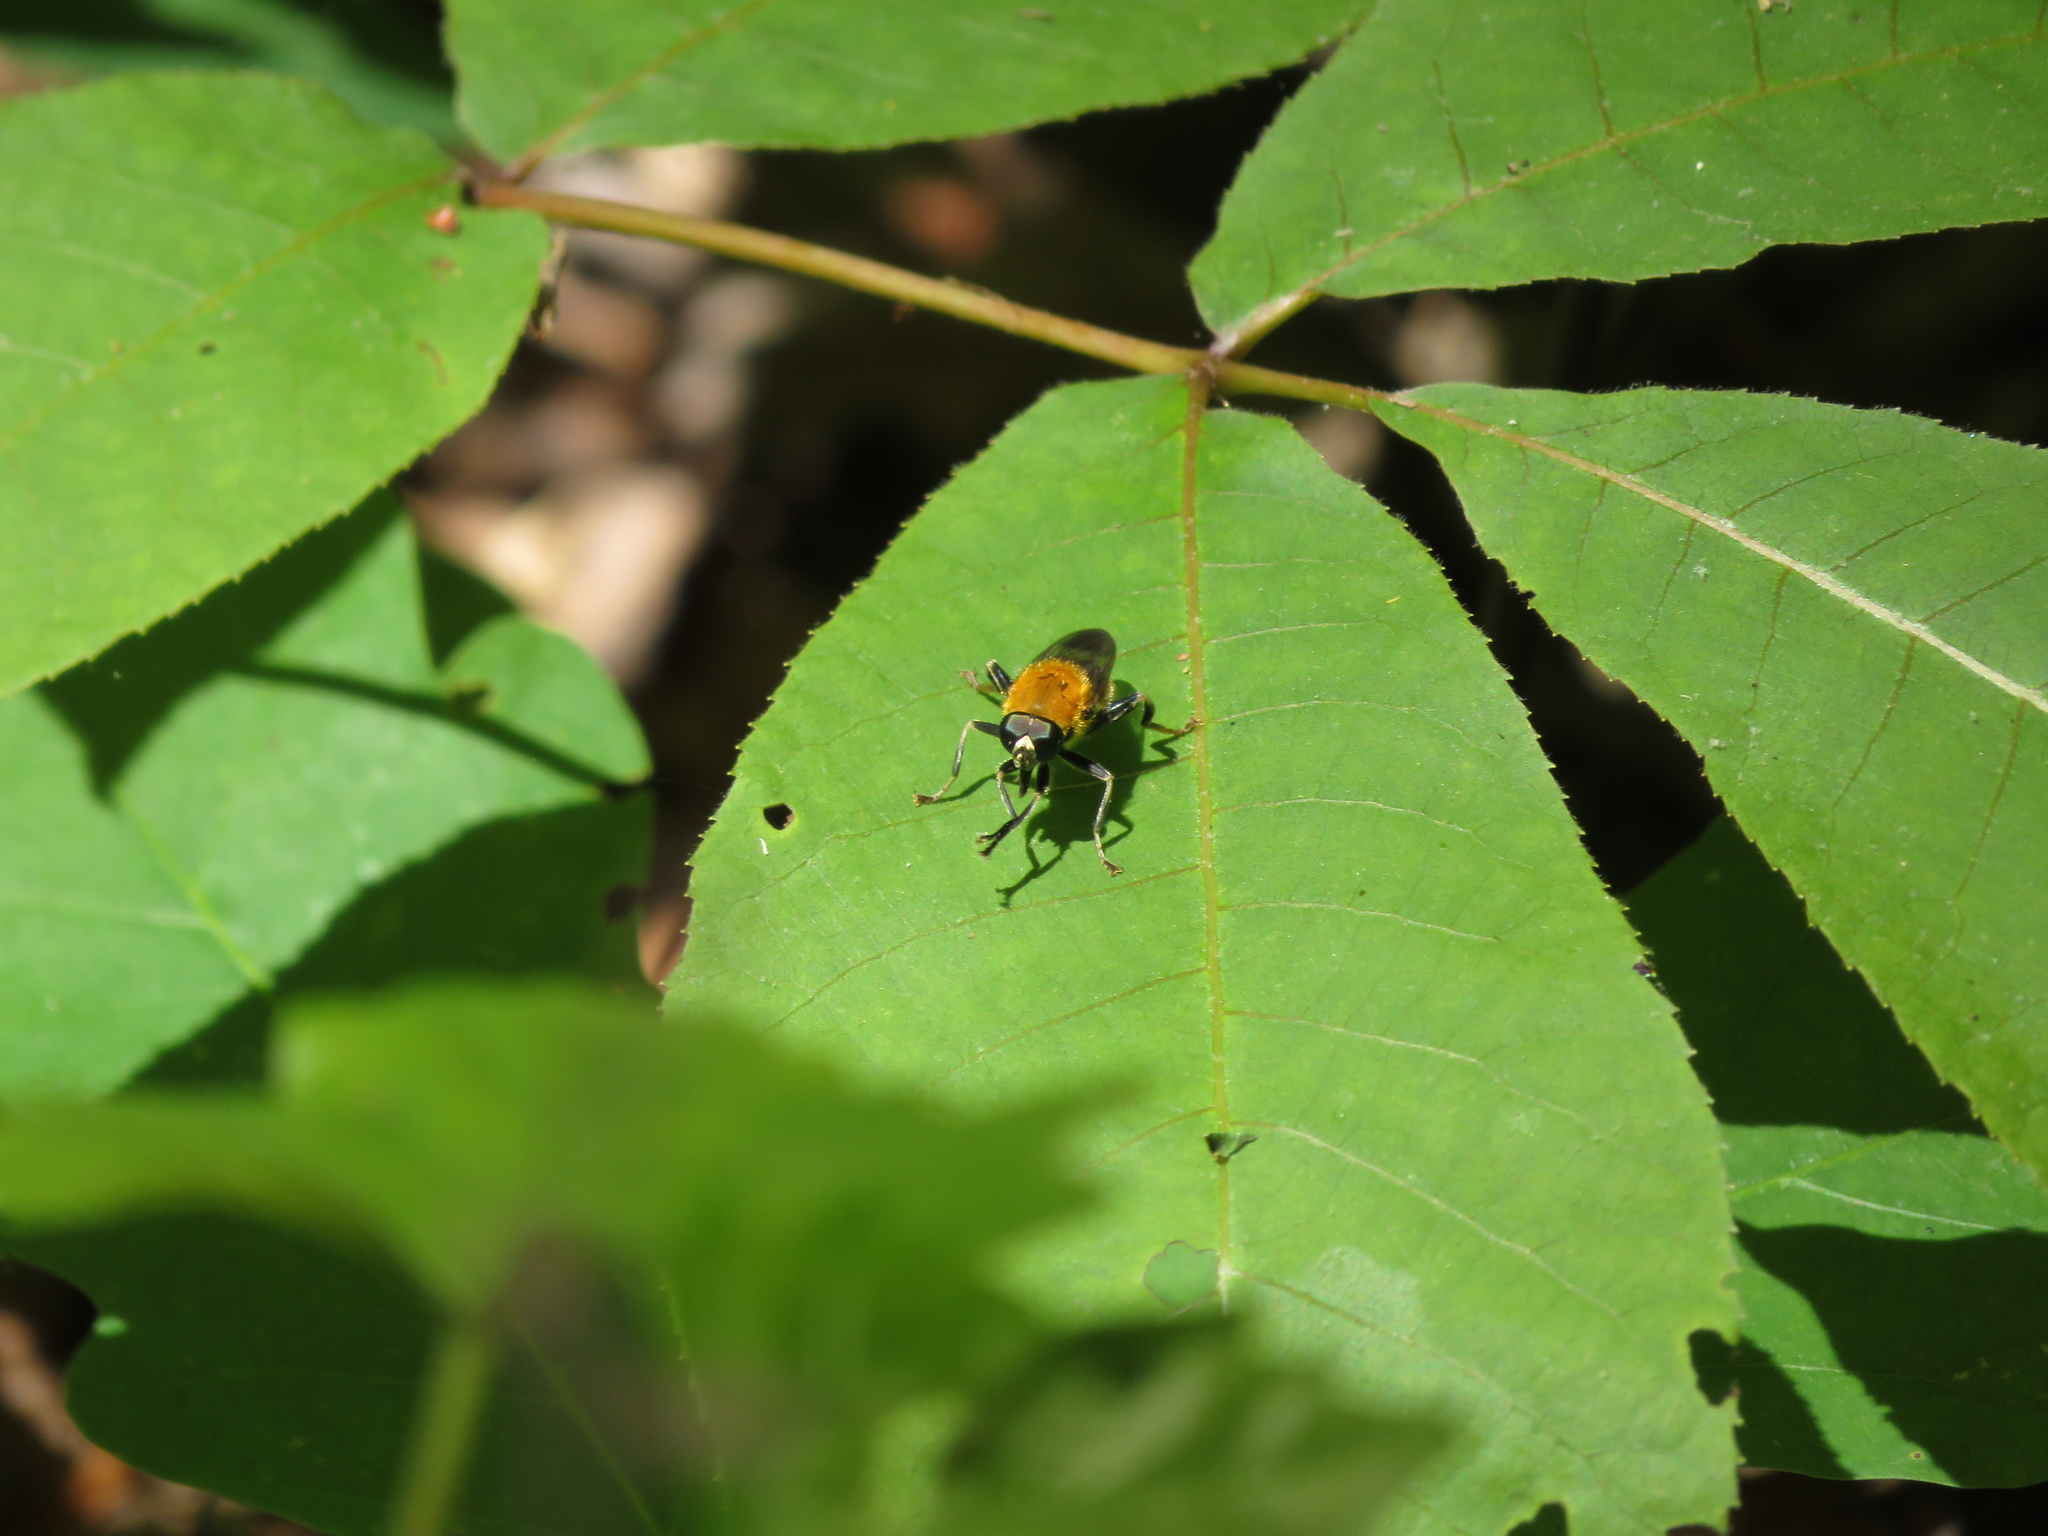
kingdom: Animalia
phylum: Arthropoda
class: Insecta
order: Diptera
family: Syrphidae
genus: Pterallastes
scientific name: Pterallastes thoracicus
